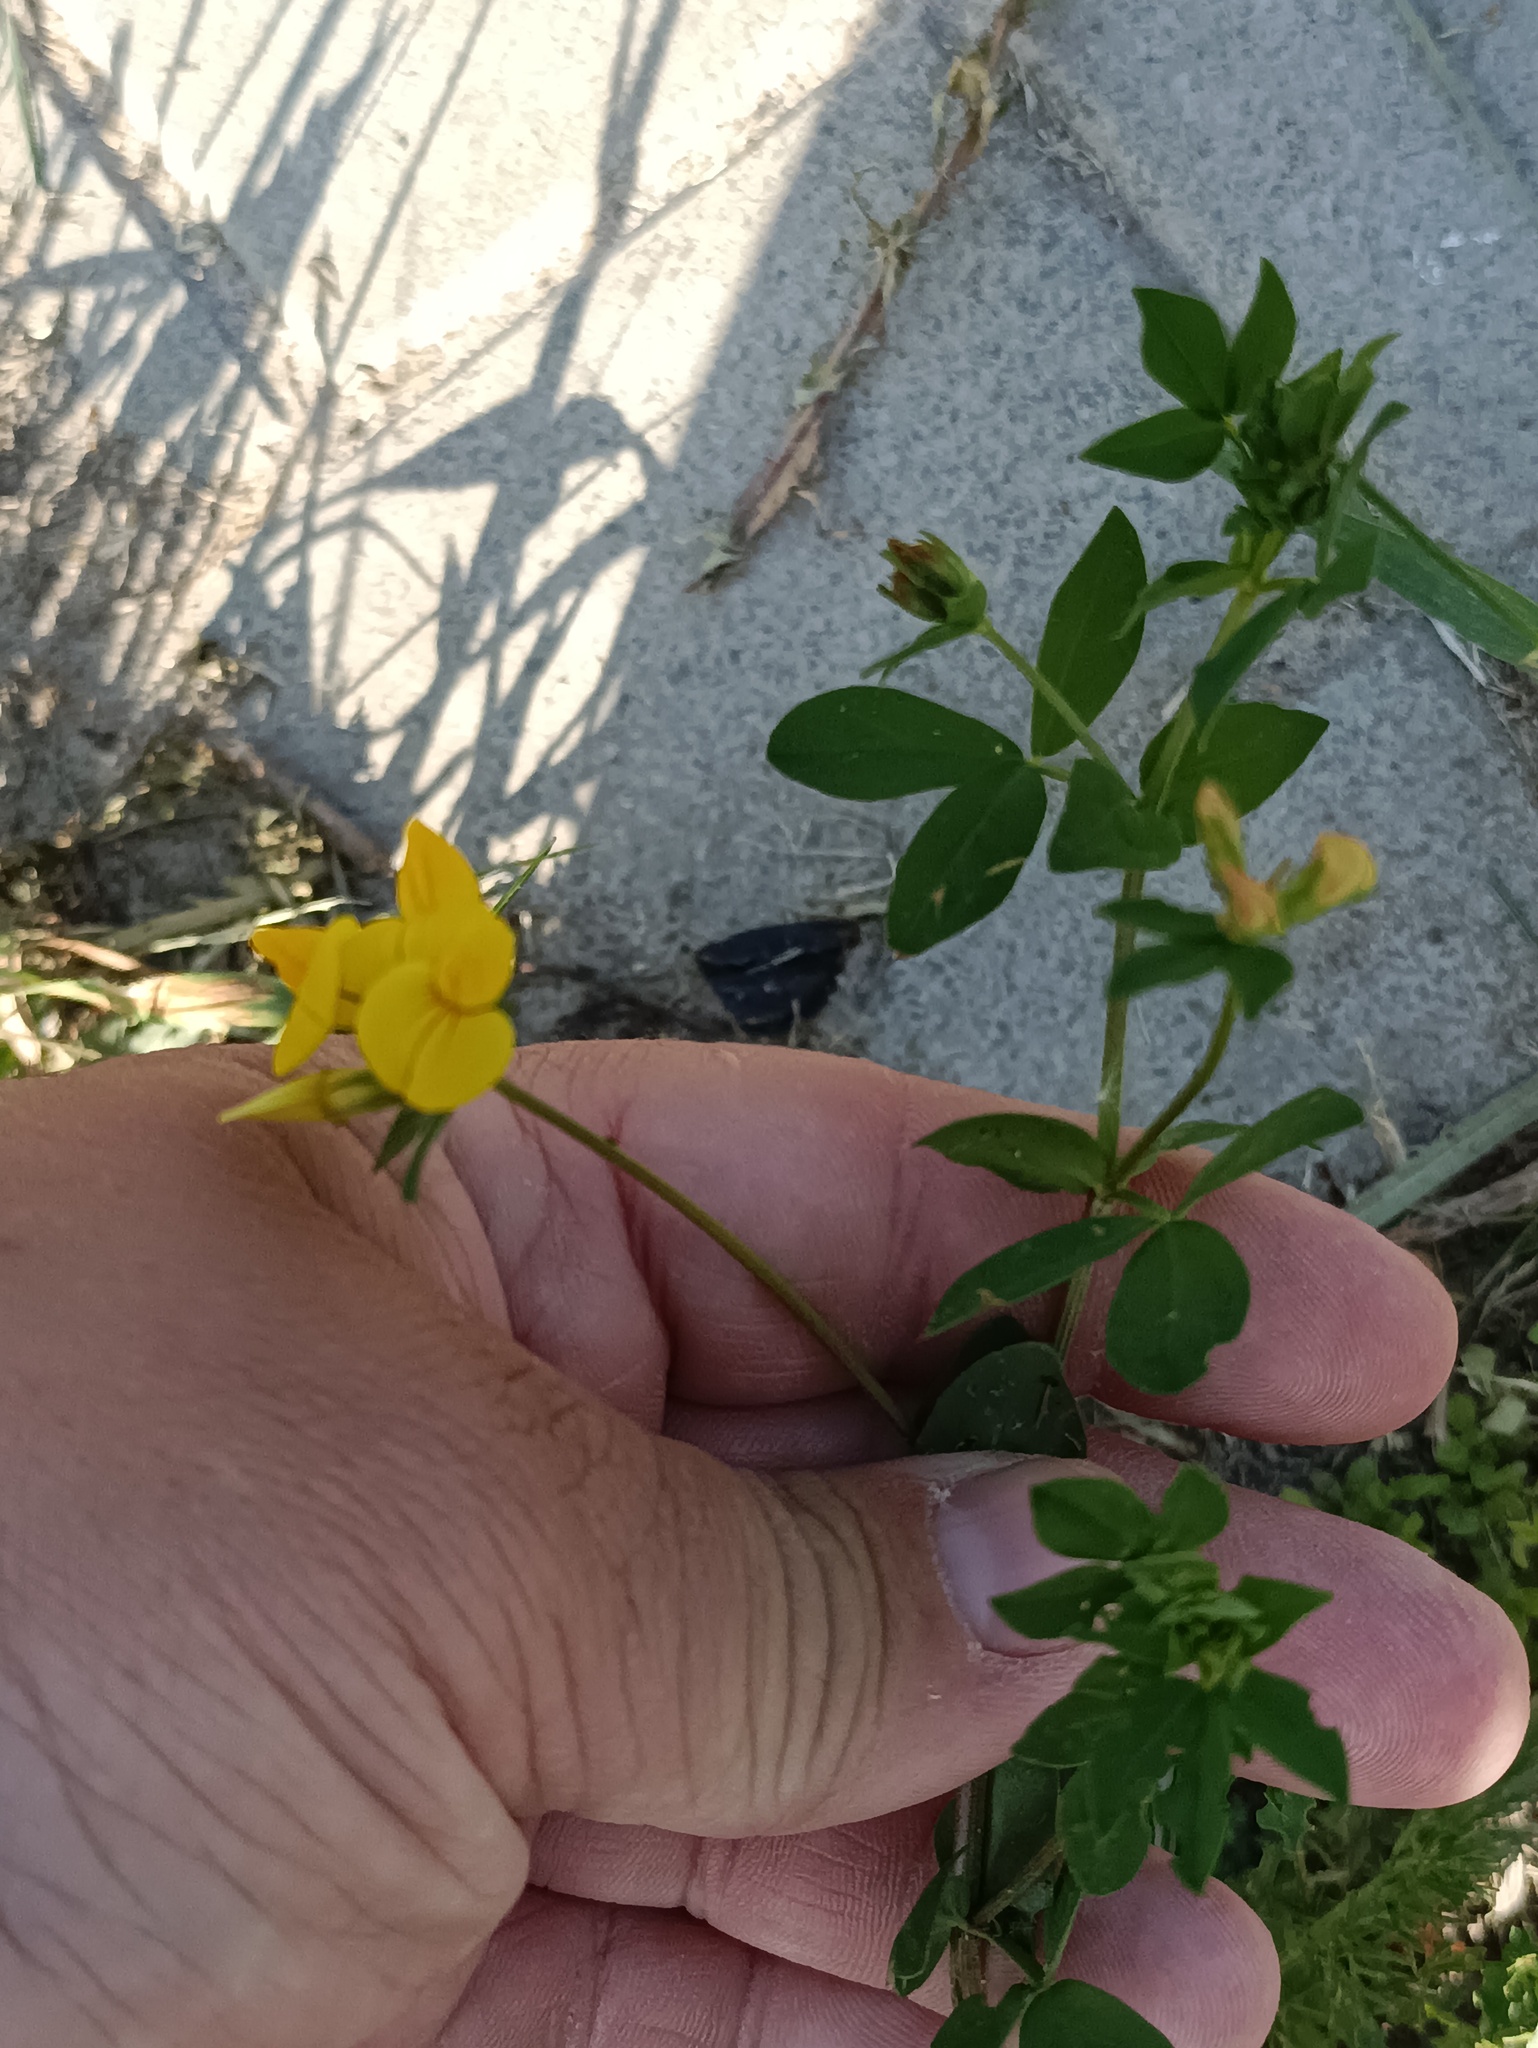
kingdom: Plantae
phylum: Tracheophyta
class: Magnoliopsida
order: Fabales
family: Fabaceae
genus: Lotus
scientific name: Lotus corniculatus
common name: Common bird's-foot-trefoil
